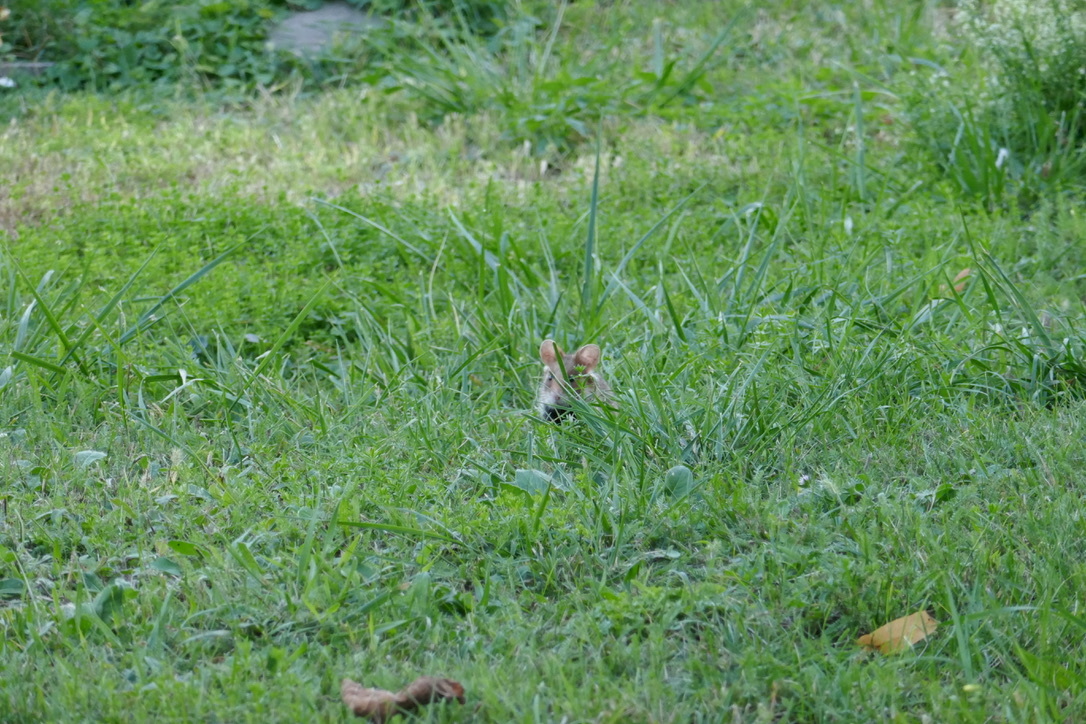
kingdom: Animalia
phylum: Chordata
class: Mammalia
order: Rodentia
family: Cricetidae
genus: Cricetus
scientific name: Cricetus cricetus
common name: Common hamster
